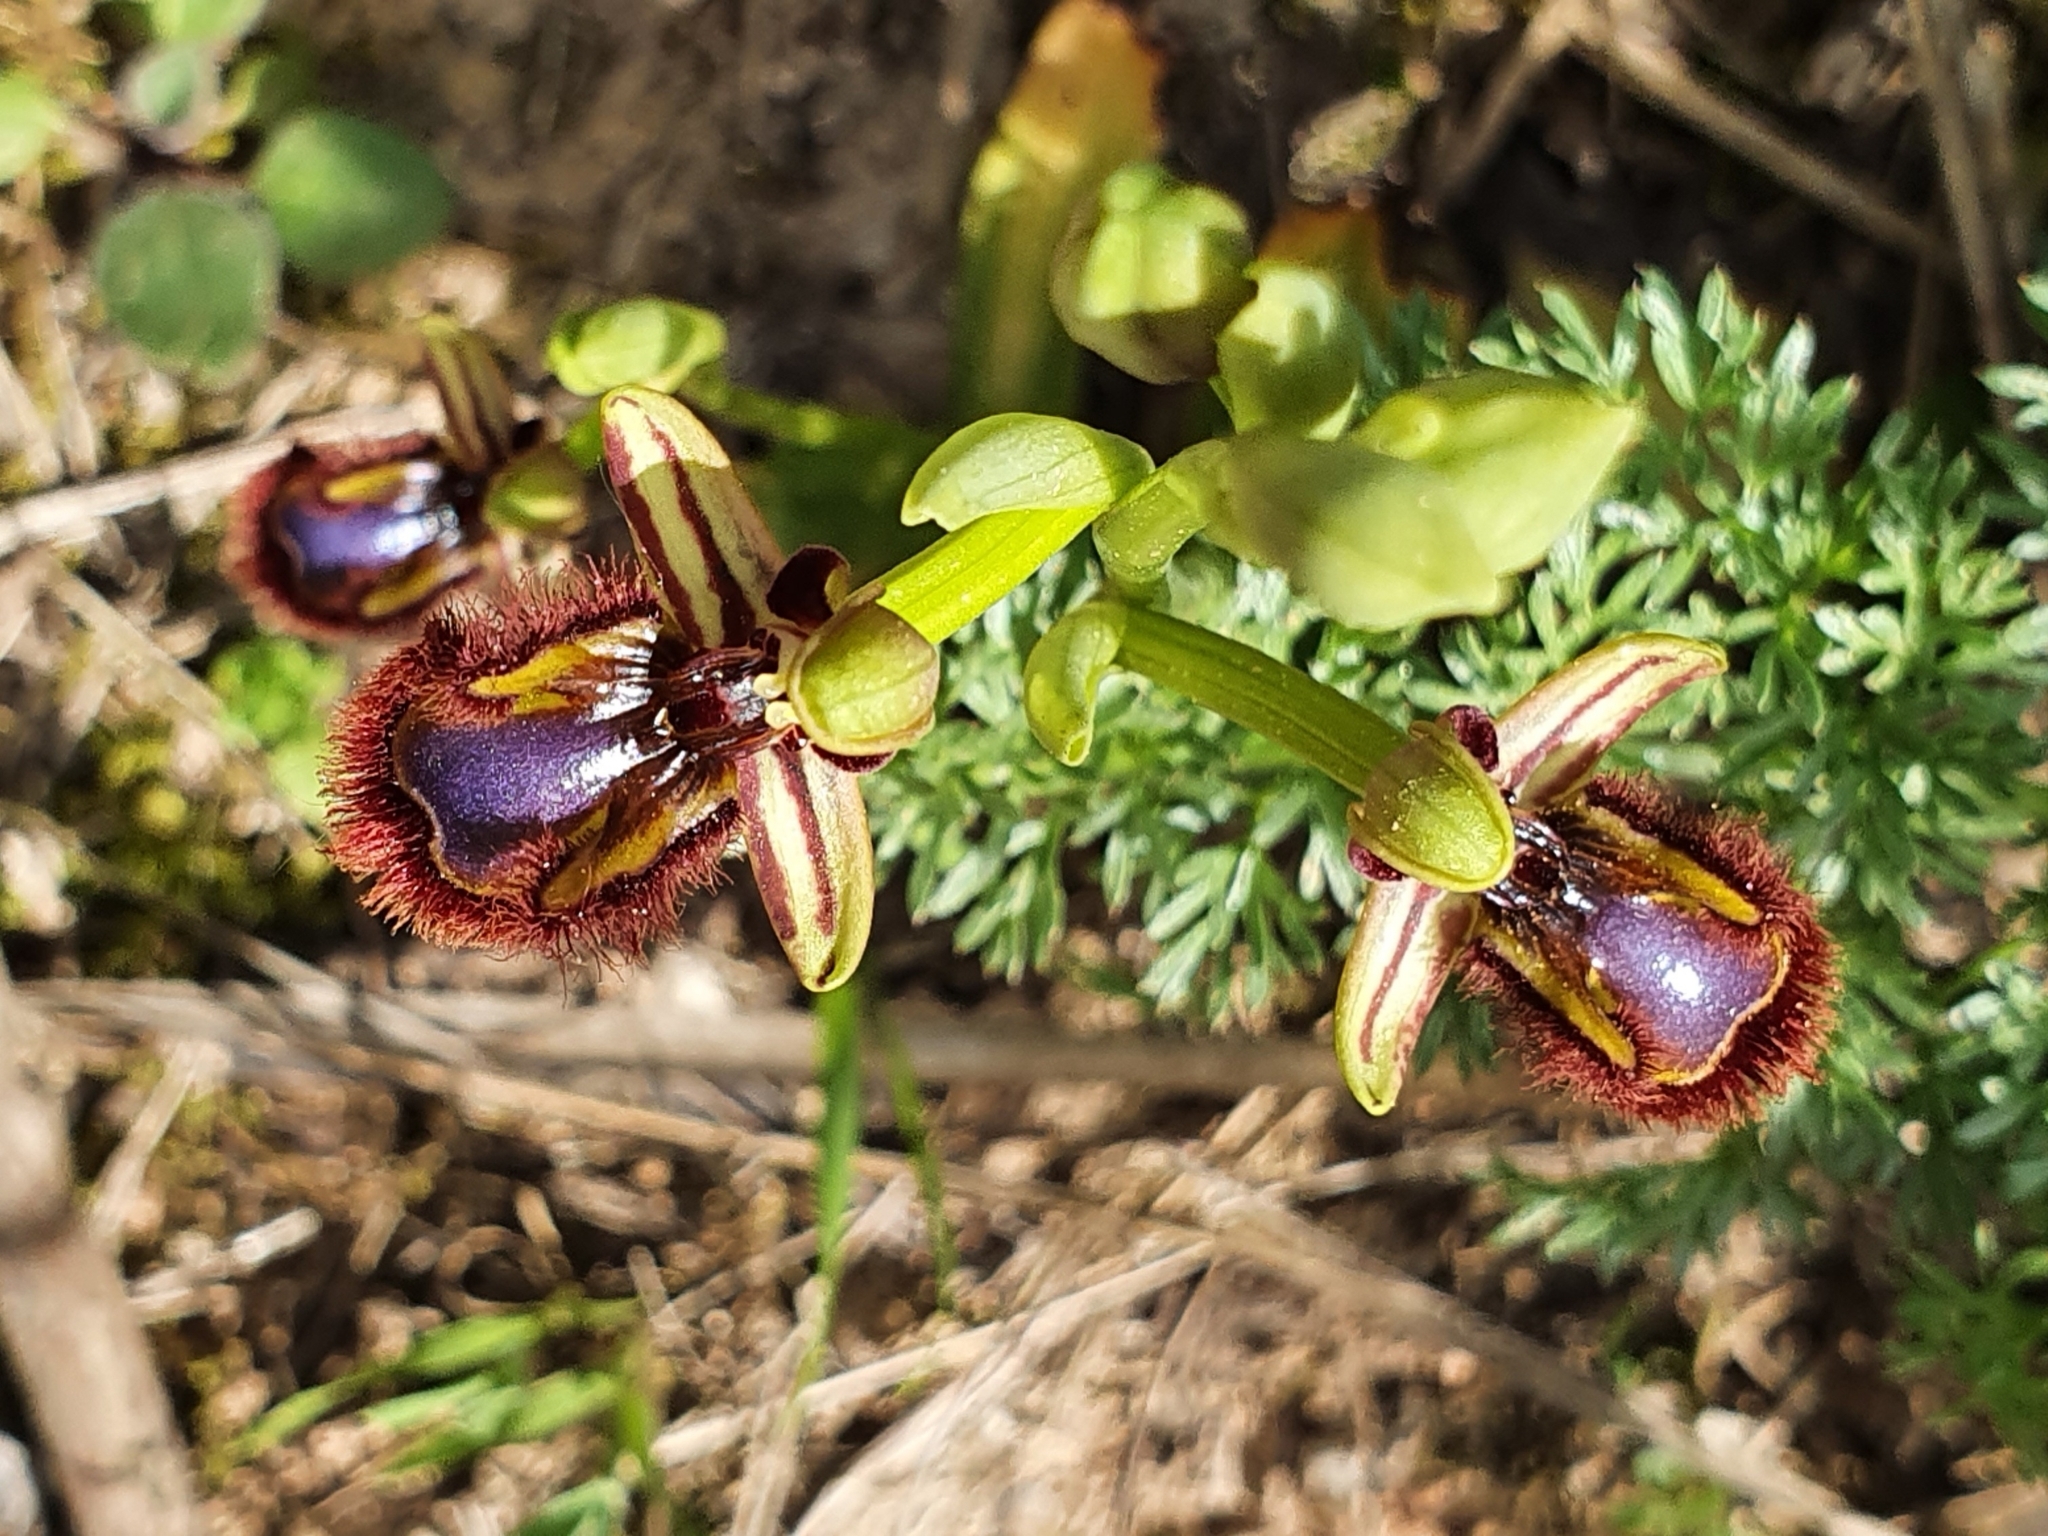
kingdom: Plantae
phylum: Tracheophyta
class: Liliopsida
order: Asparagales
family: Orchidaceae
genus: Ophrys
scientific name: Ophrys speculum
